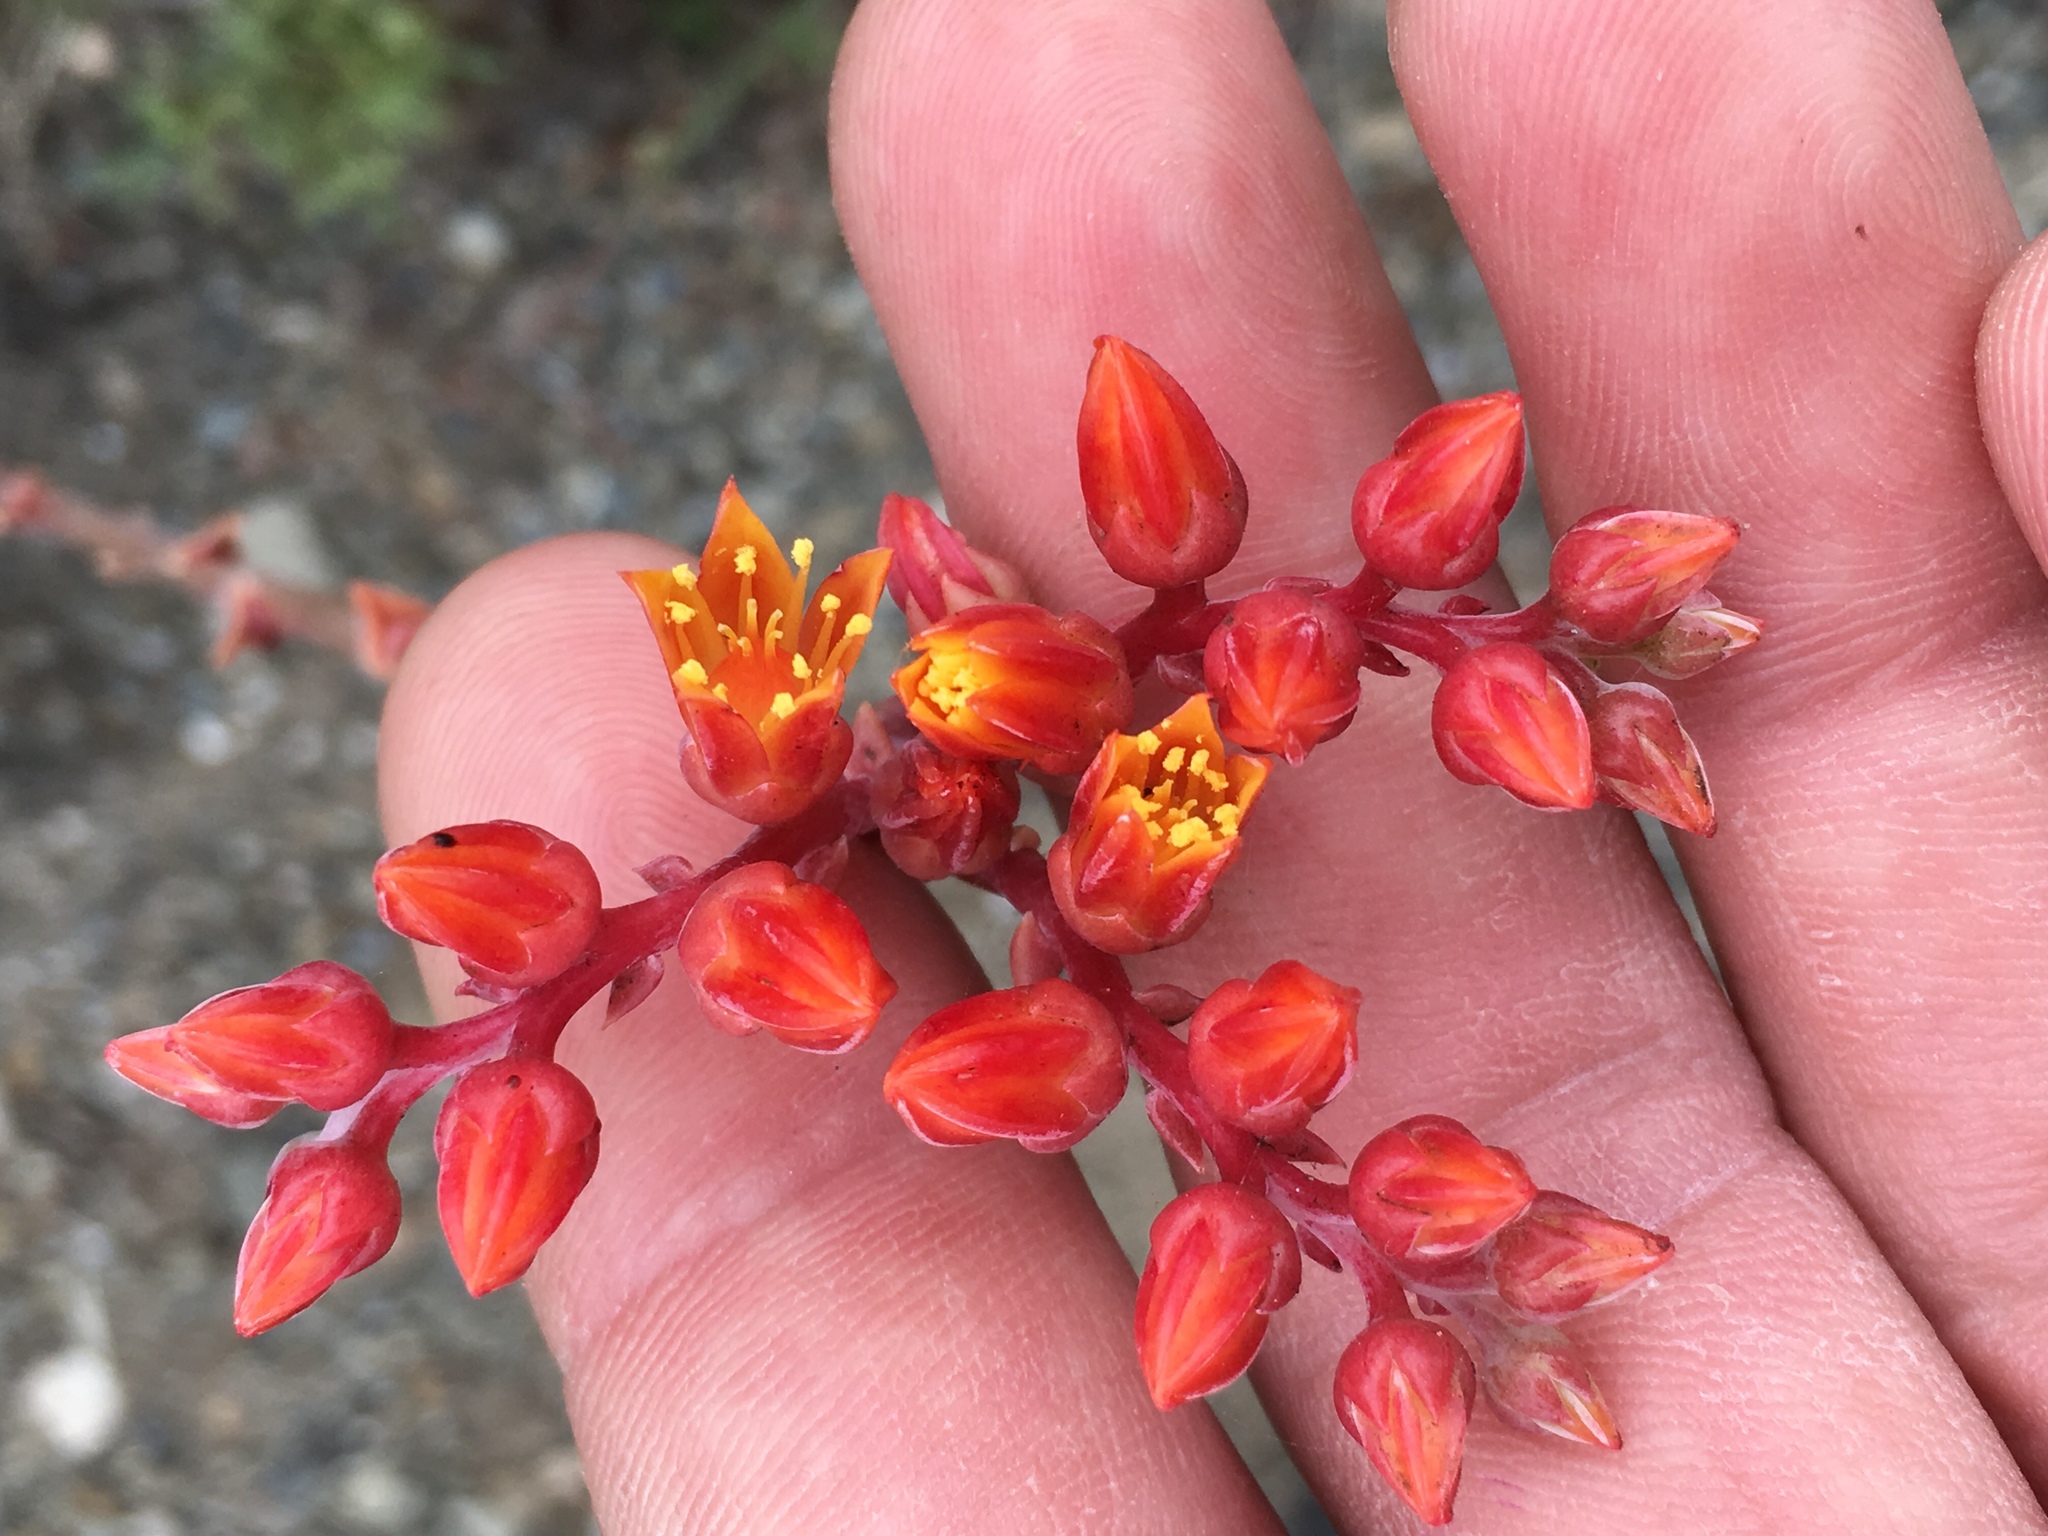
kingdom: Plantae
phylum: Tracheophyta
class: Magnoliopsida
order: Saxifragales
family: Crassulaceae
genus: Dudleya
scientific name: Dudleya caespitosa
